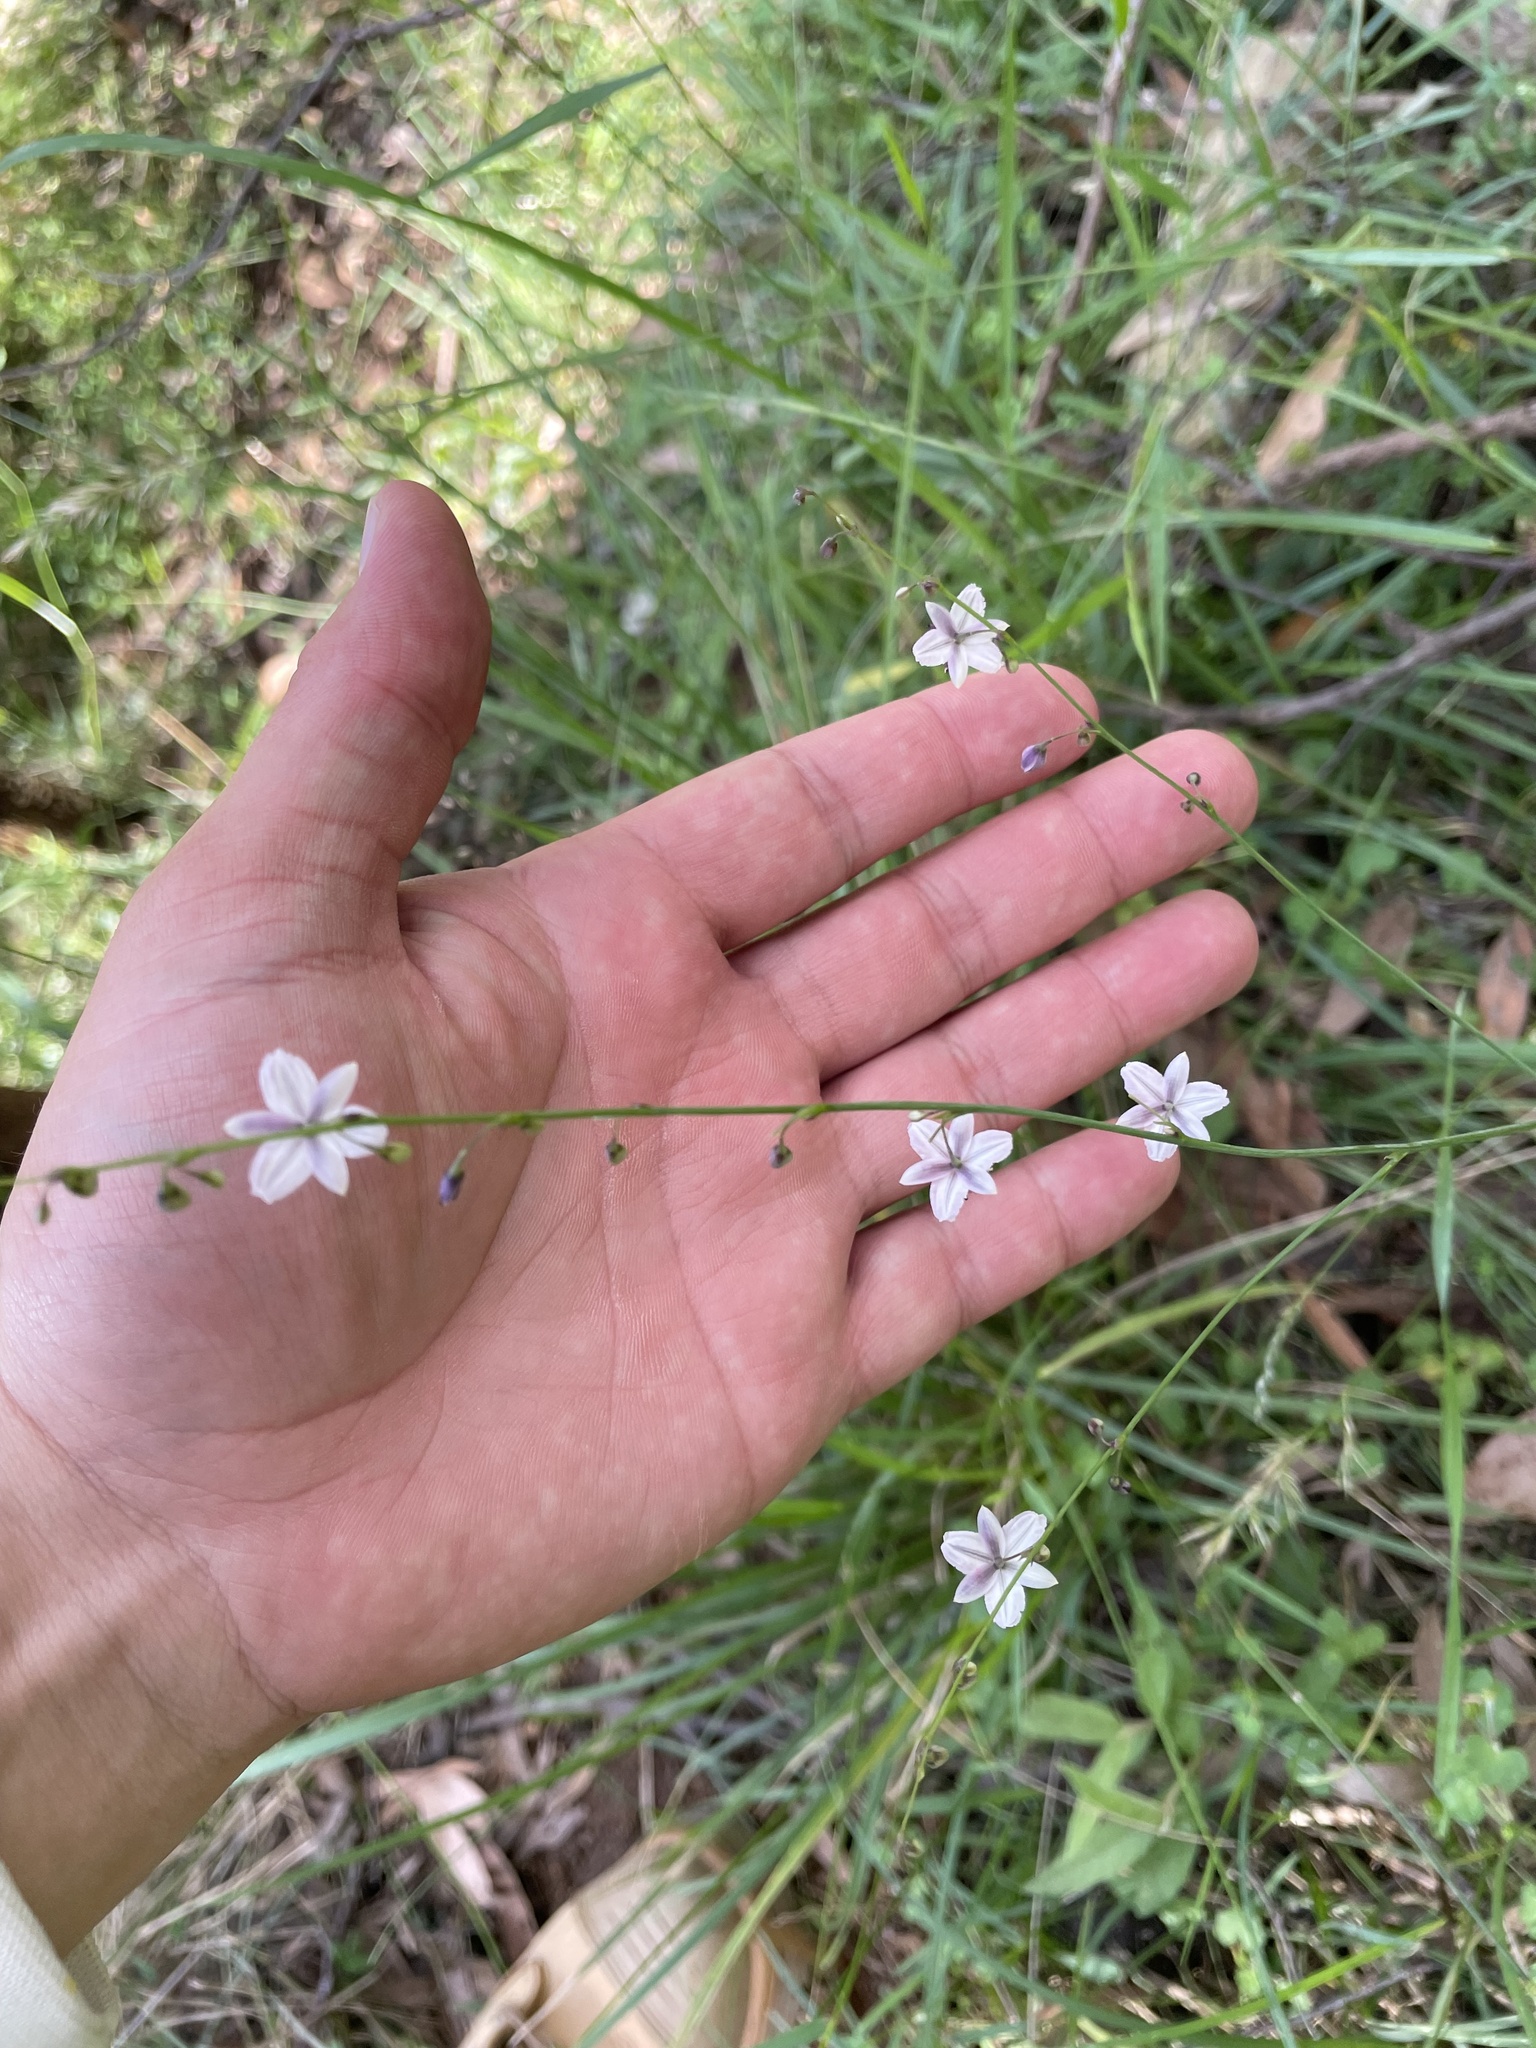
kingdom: Plantae
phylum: Tracheophyta
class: Liliopsida
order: Asparagales
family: Asparagaceae
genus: Arthropodium
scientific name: Arthropodium milleflorum
